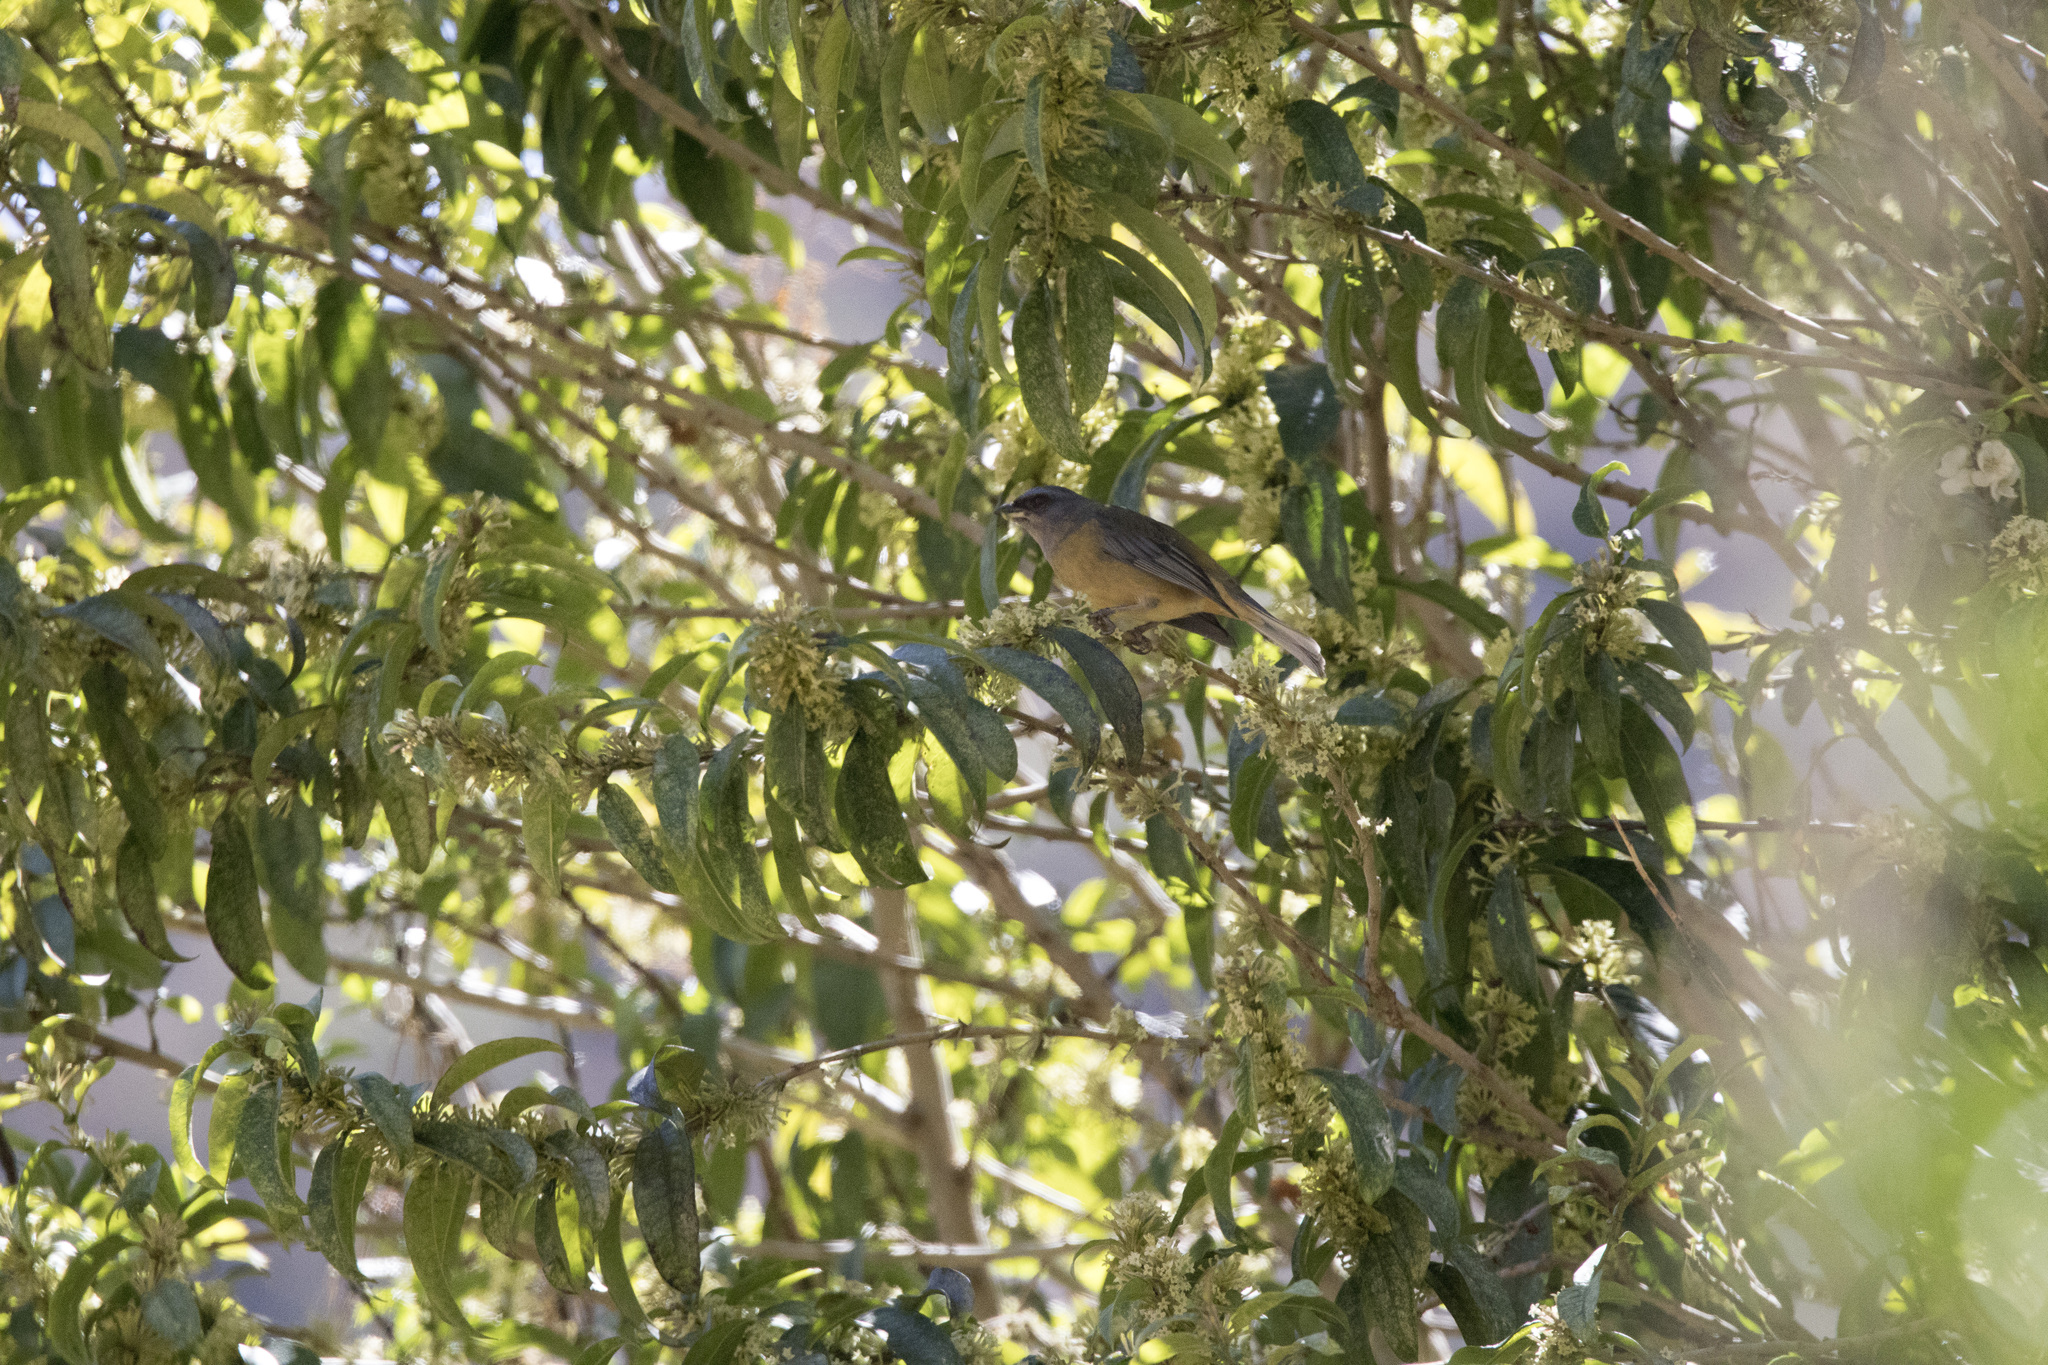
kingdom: Animalia
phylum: Chordata
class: Aves
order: Passeriformes
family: Thraupidae
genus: Rauenia
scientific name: Rauenia bonariensis
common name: Blue-and-yellow tanager
